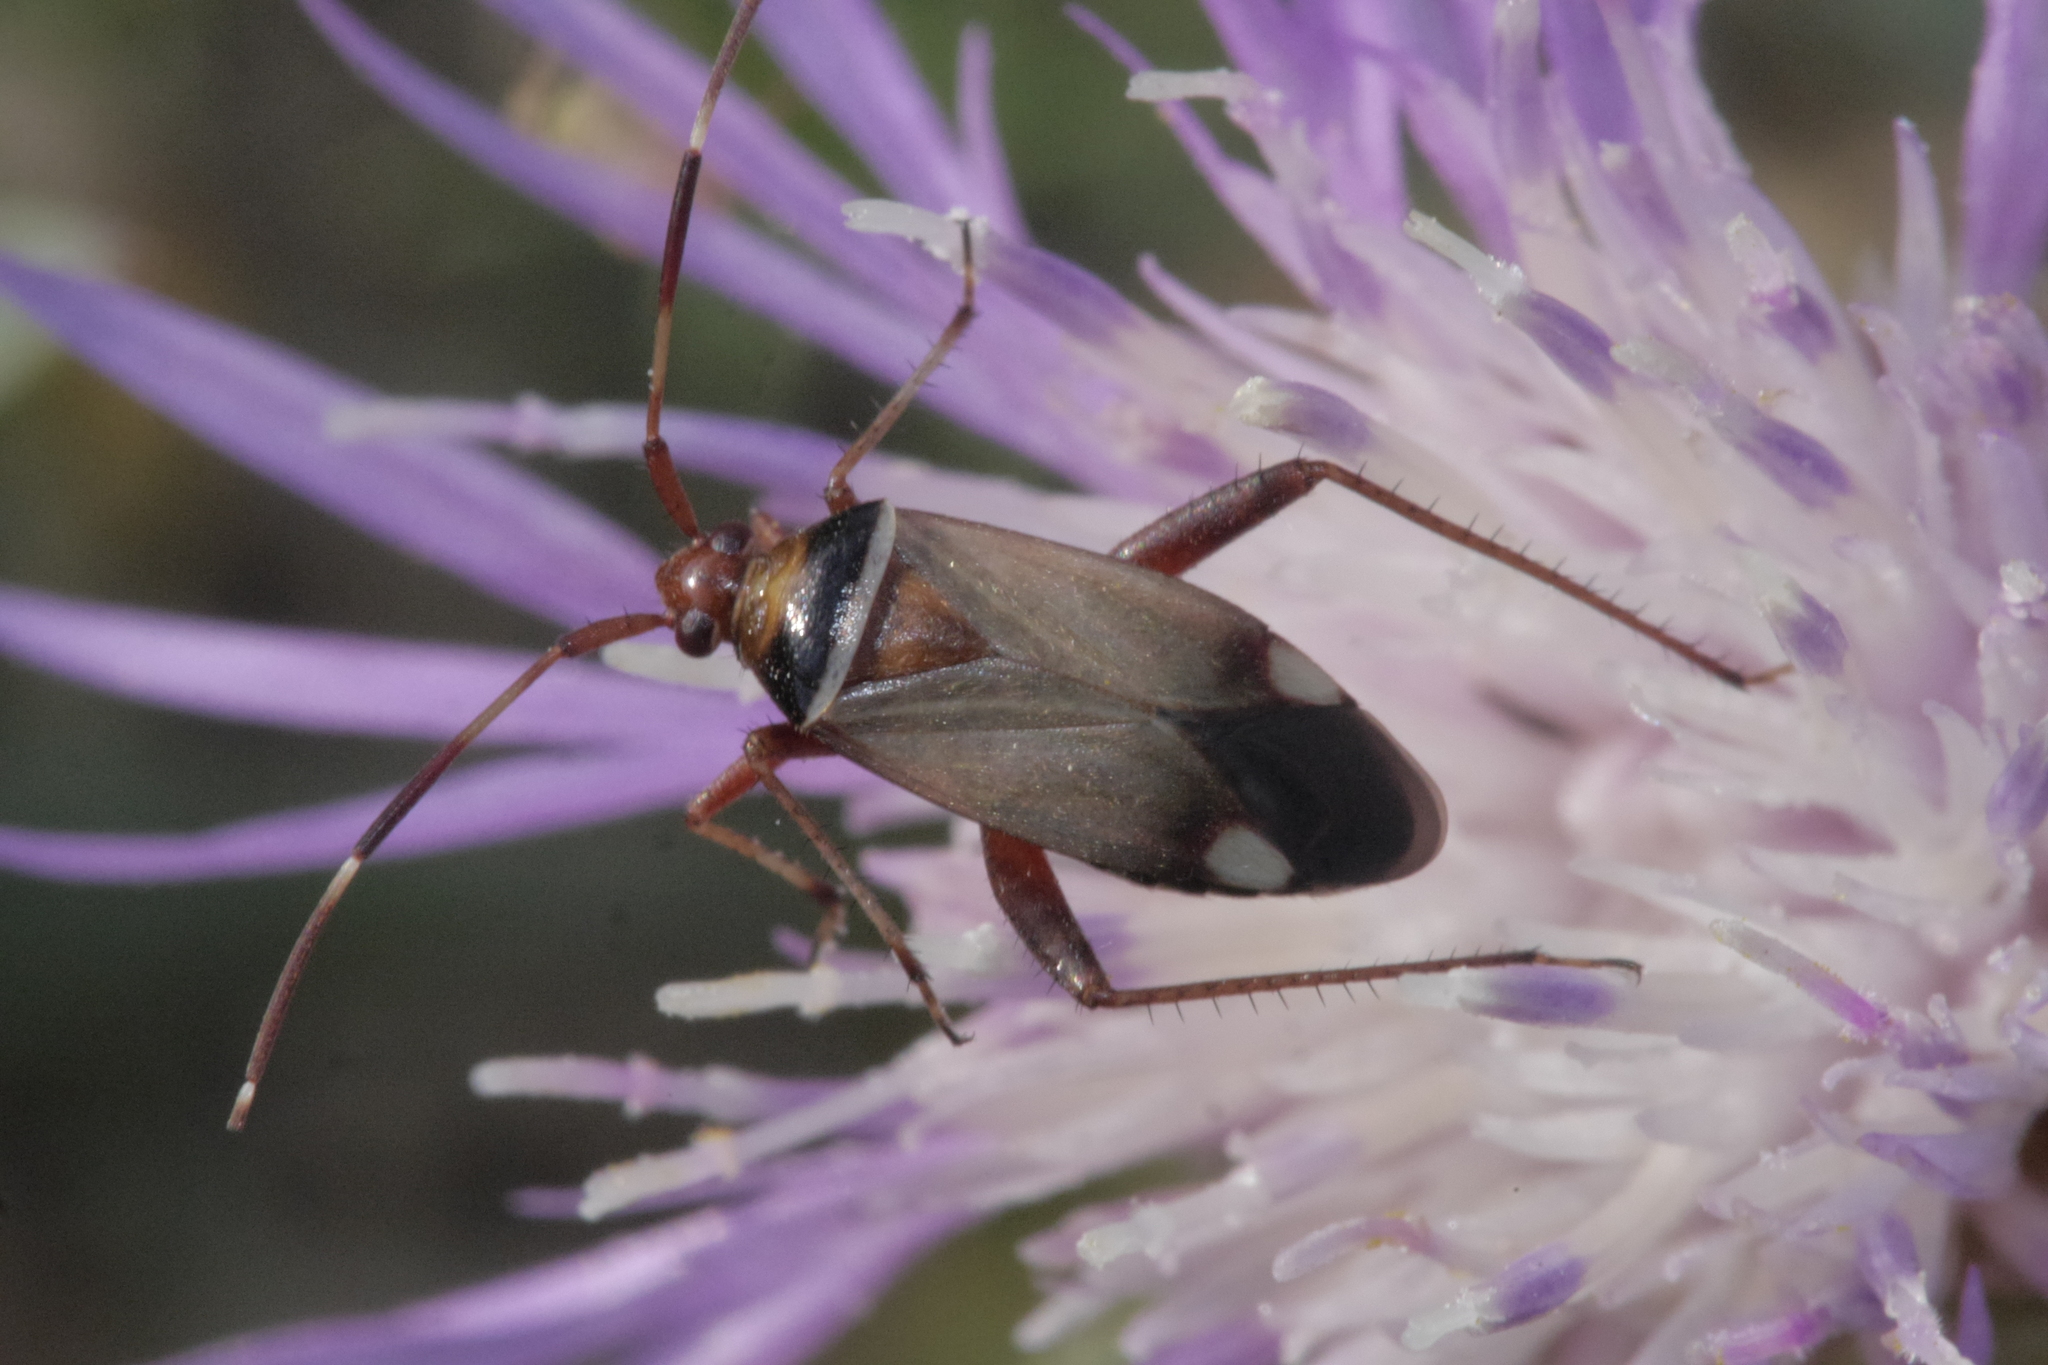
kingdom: Animalia
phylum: Arthropoda
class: Insecta
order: Hemiptera
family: Miridae
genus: Adelphocoris
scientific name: Adelphocoris vandalicus
